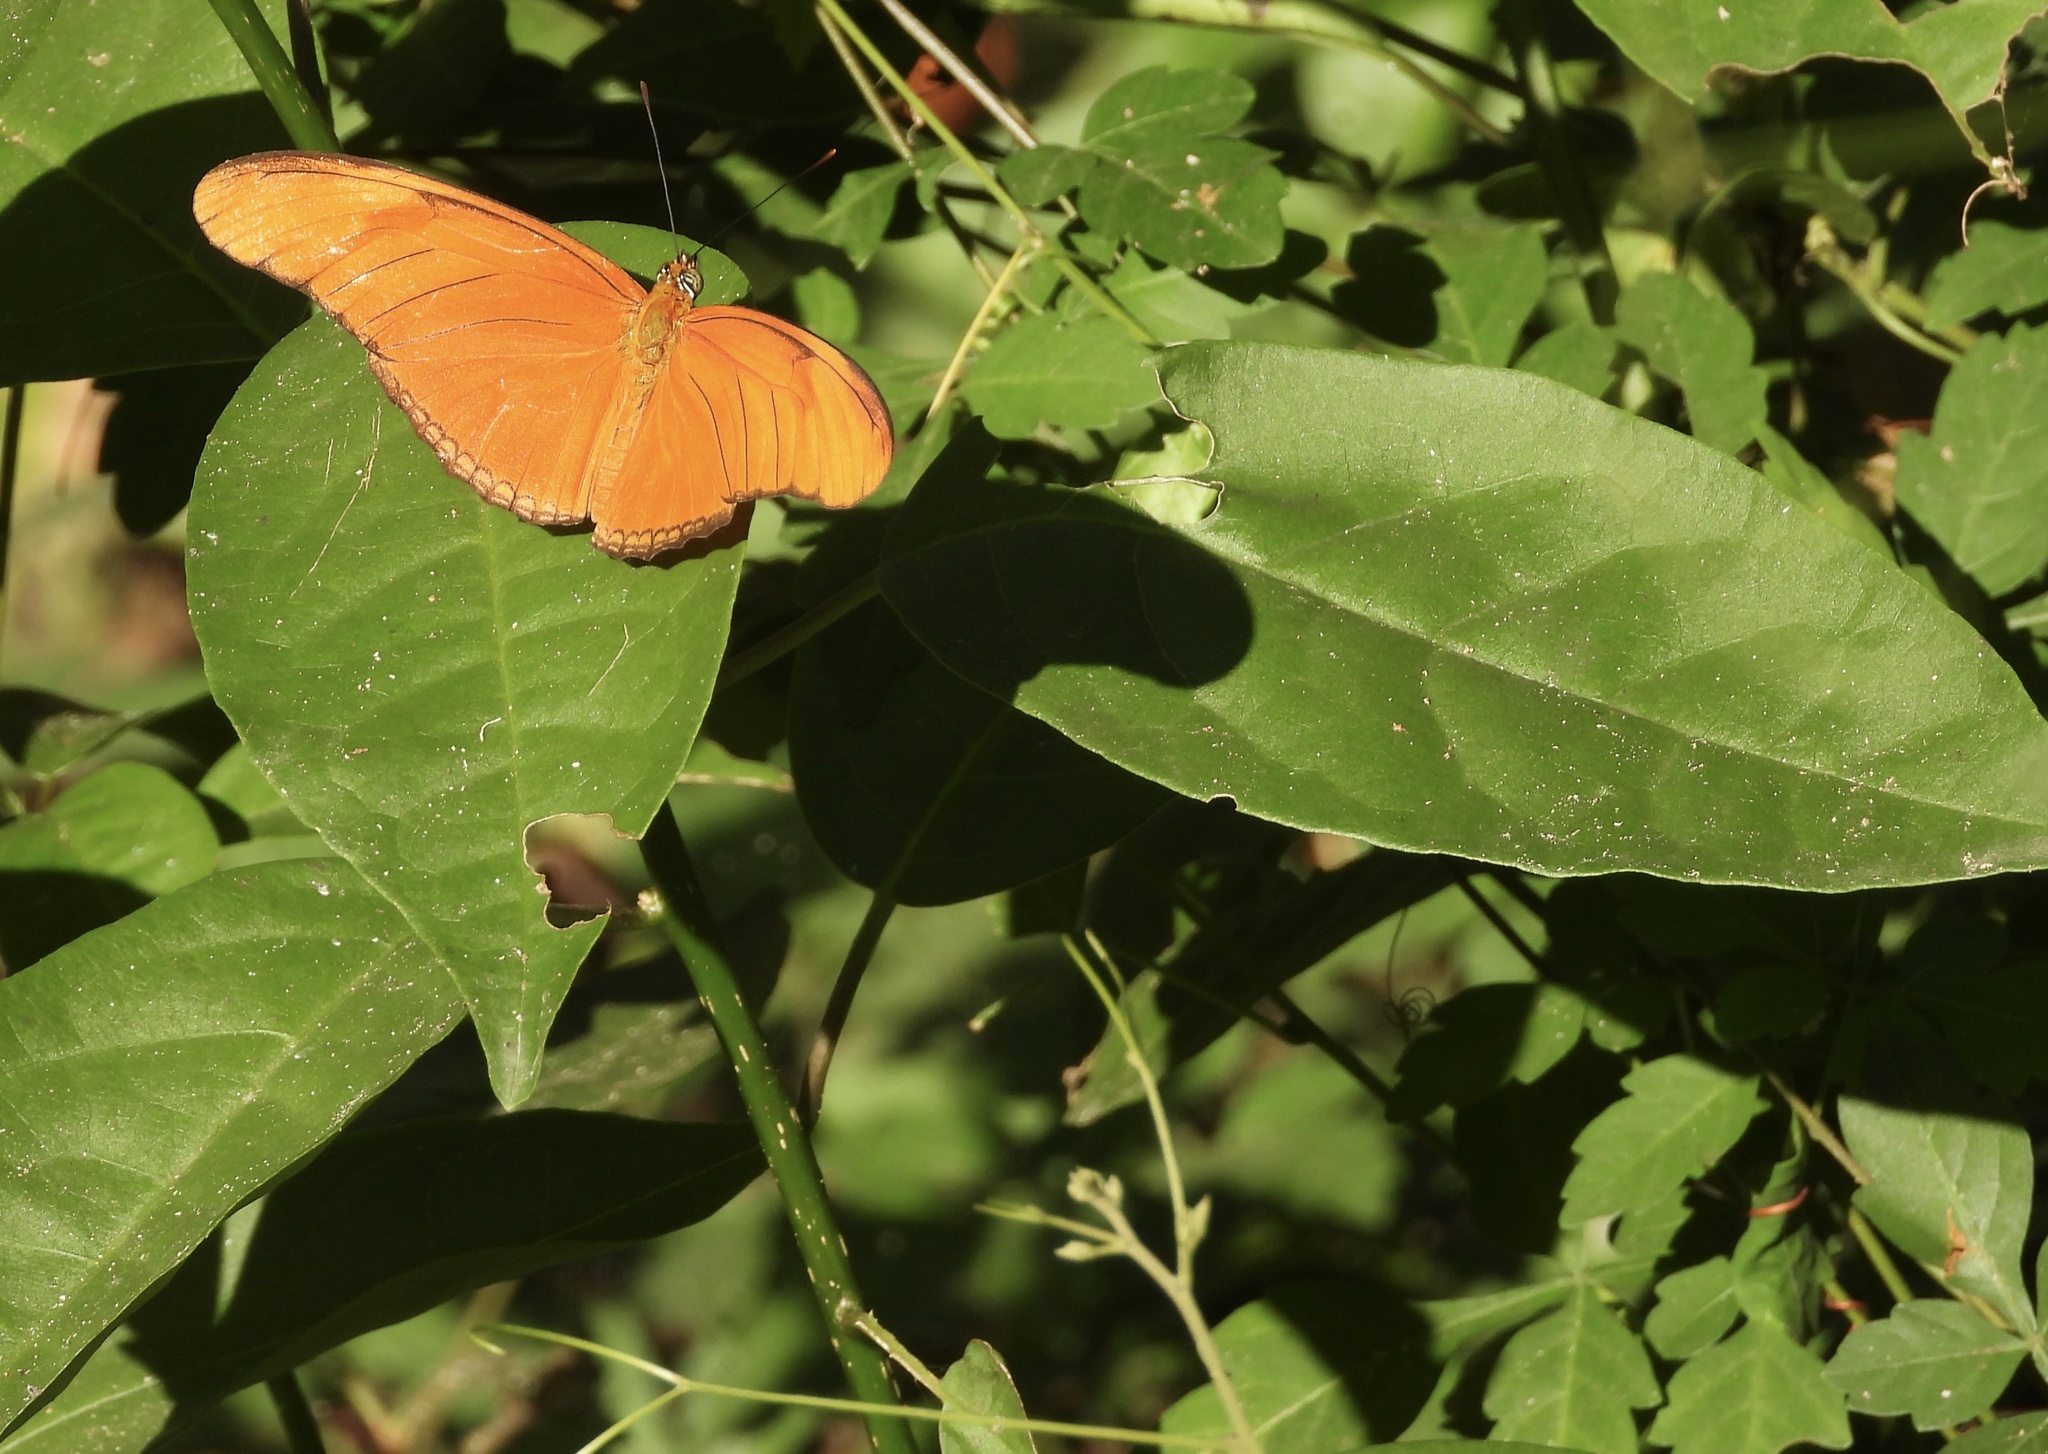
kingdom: Animalia
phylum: Arthropoda
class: Insecta
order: Lepidoptera
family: Nymphalidae
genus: Dryas
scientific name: Dryas iulia
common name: Flambeau
